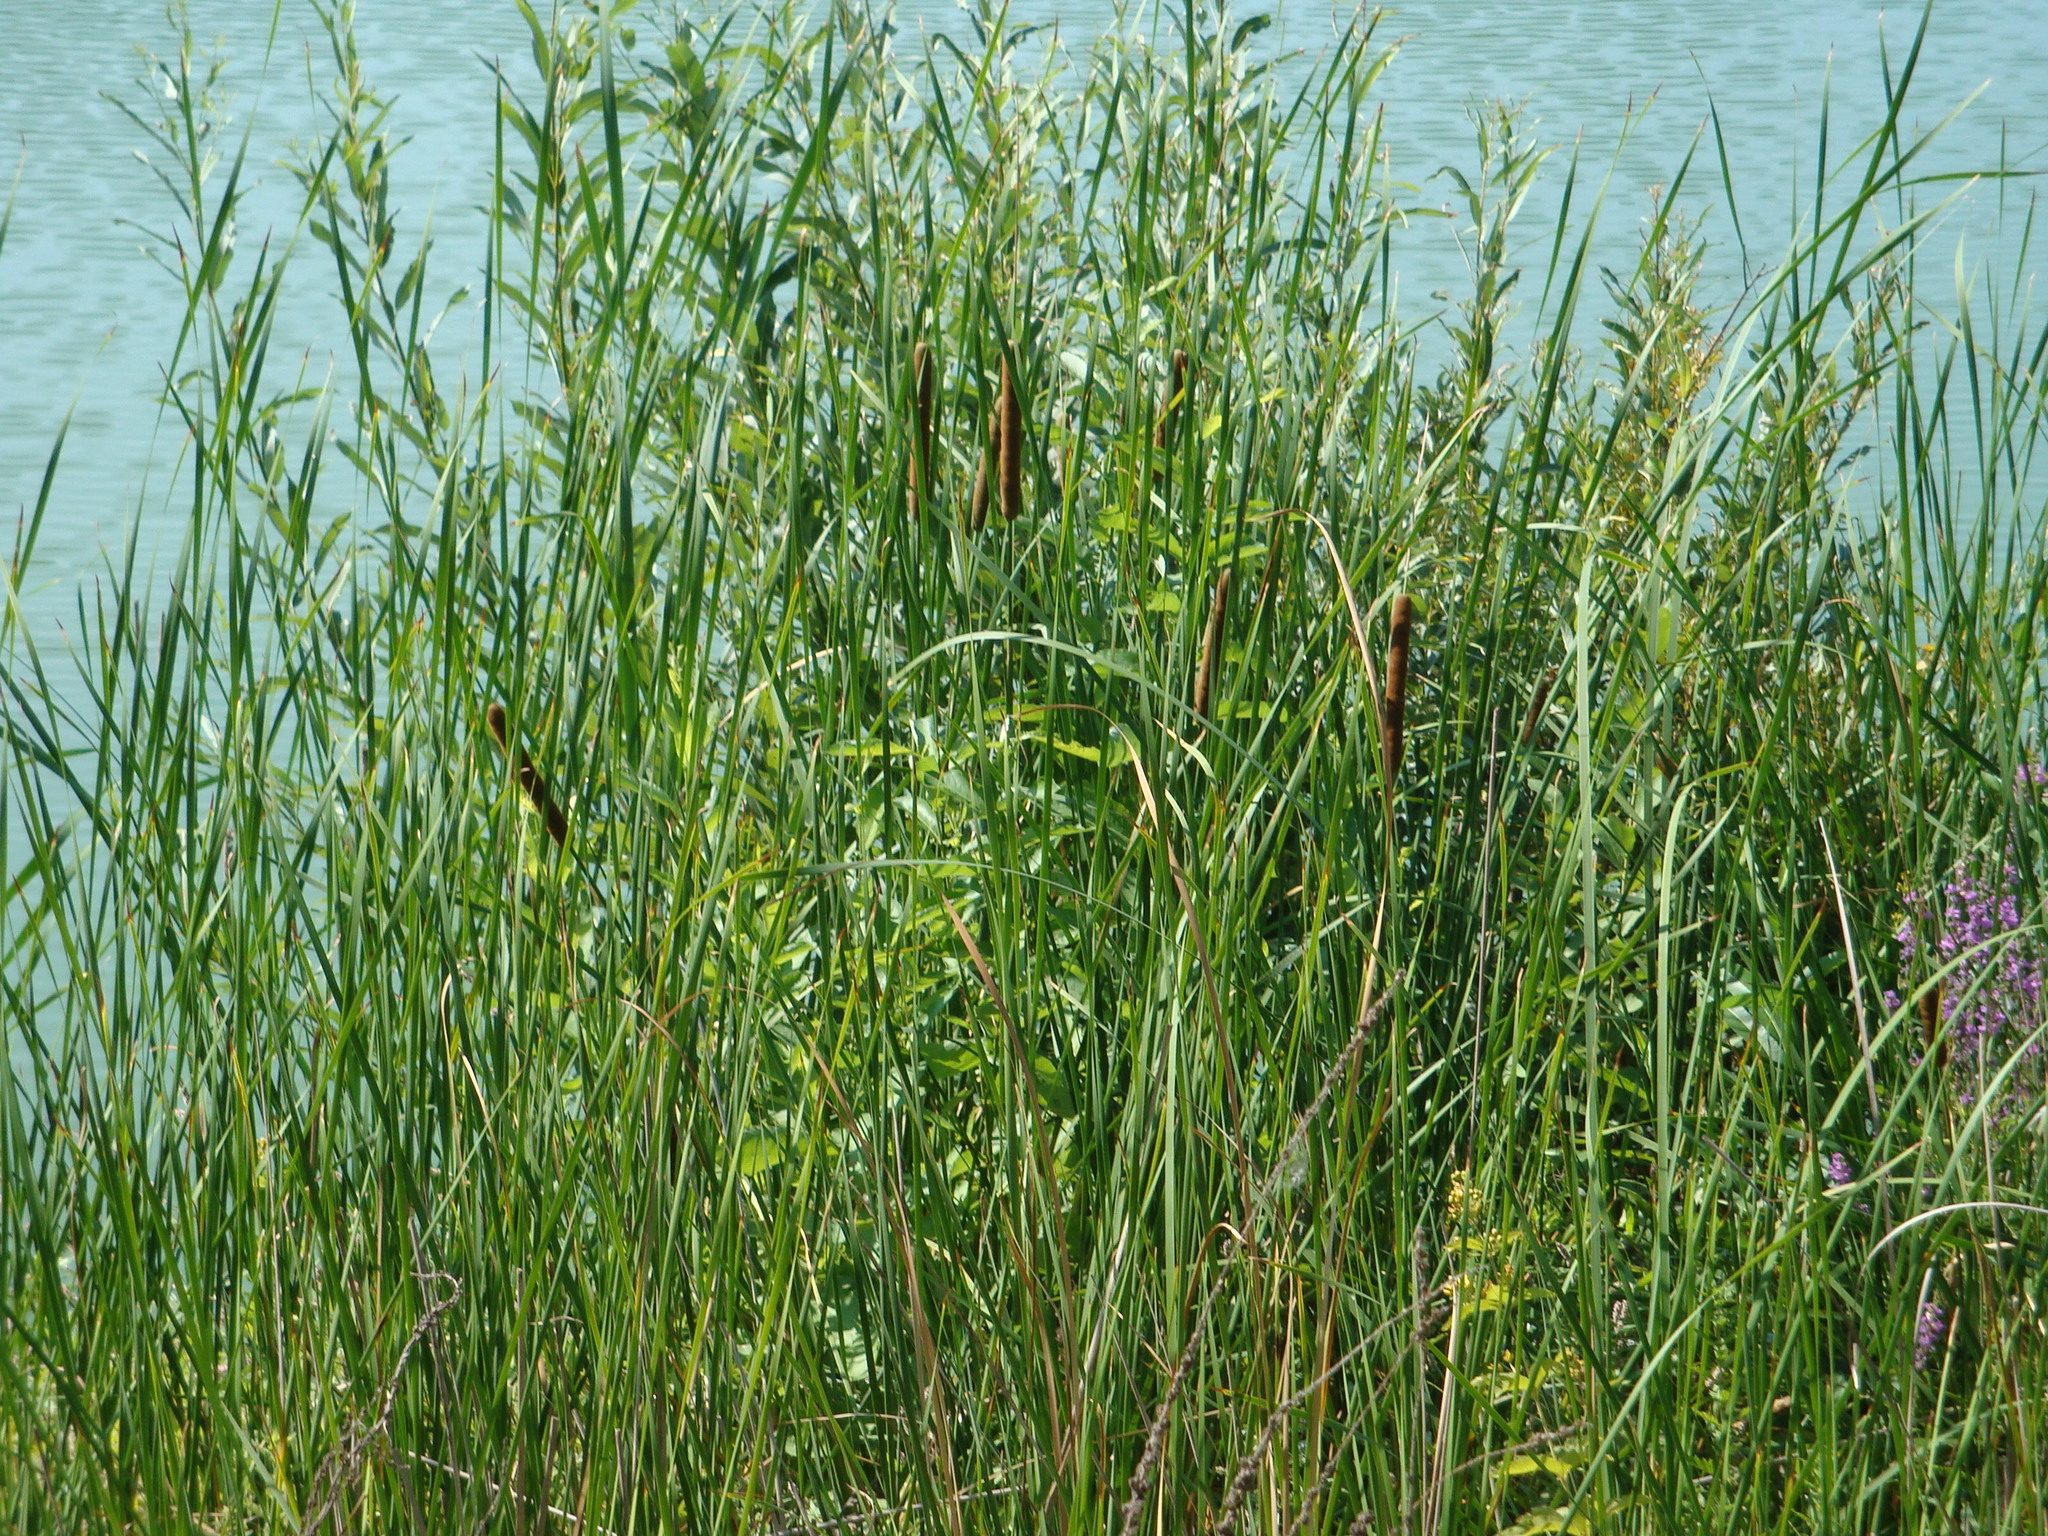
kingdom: Plantae
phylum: Tracheophyta
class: Liliopsida
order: Poales
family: Typhaceae
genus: Typha
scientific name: Typha angustifolia
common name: Lesser bulrush
